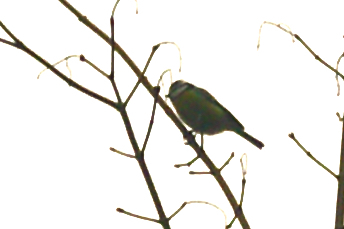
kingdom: Animalia
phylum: Chordata
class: Aves
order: Passeriformes
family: Paridae
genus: Cyanistes
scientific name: Cyanistes caeruleus
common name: Eurasian blue tit
